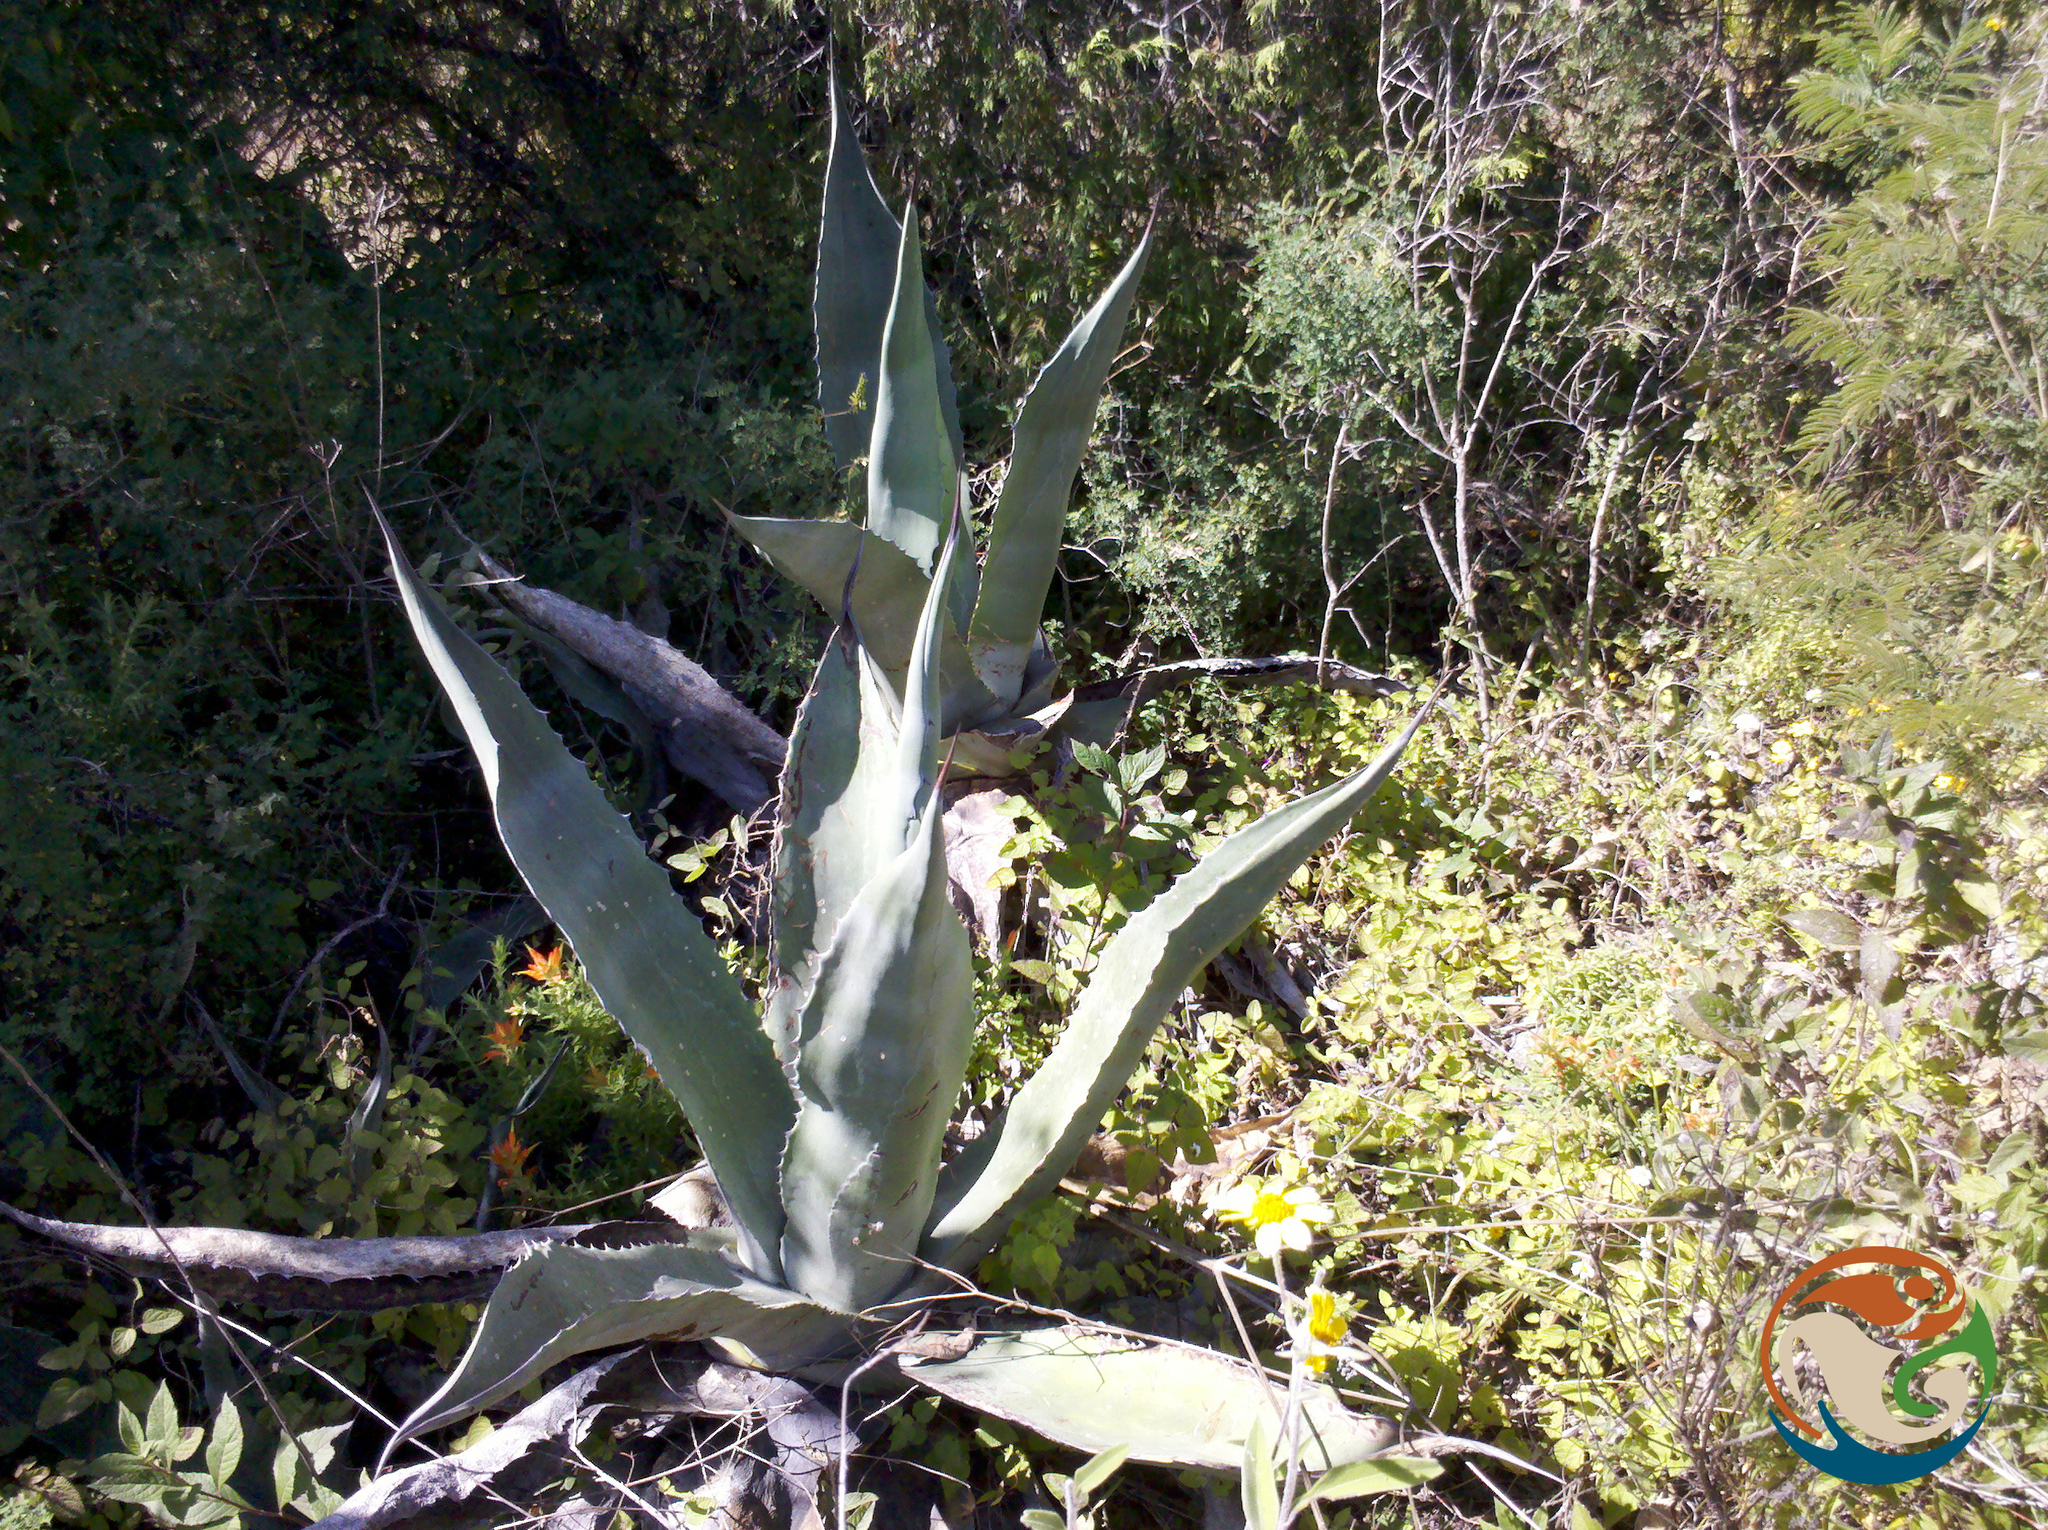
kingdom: Plantae
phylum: Tracheophyta
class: Liliopsida
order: Asparagales
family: Asparagaceae
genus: Agave
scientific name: Agave salmiana
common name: Pulque agave
